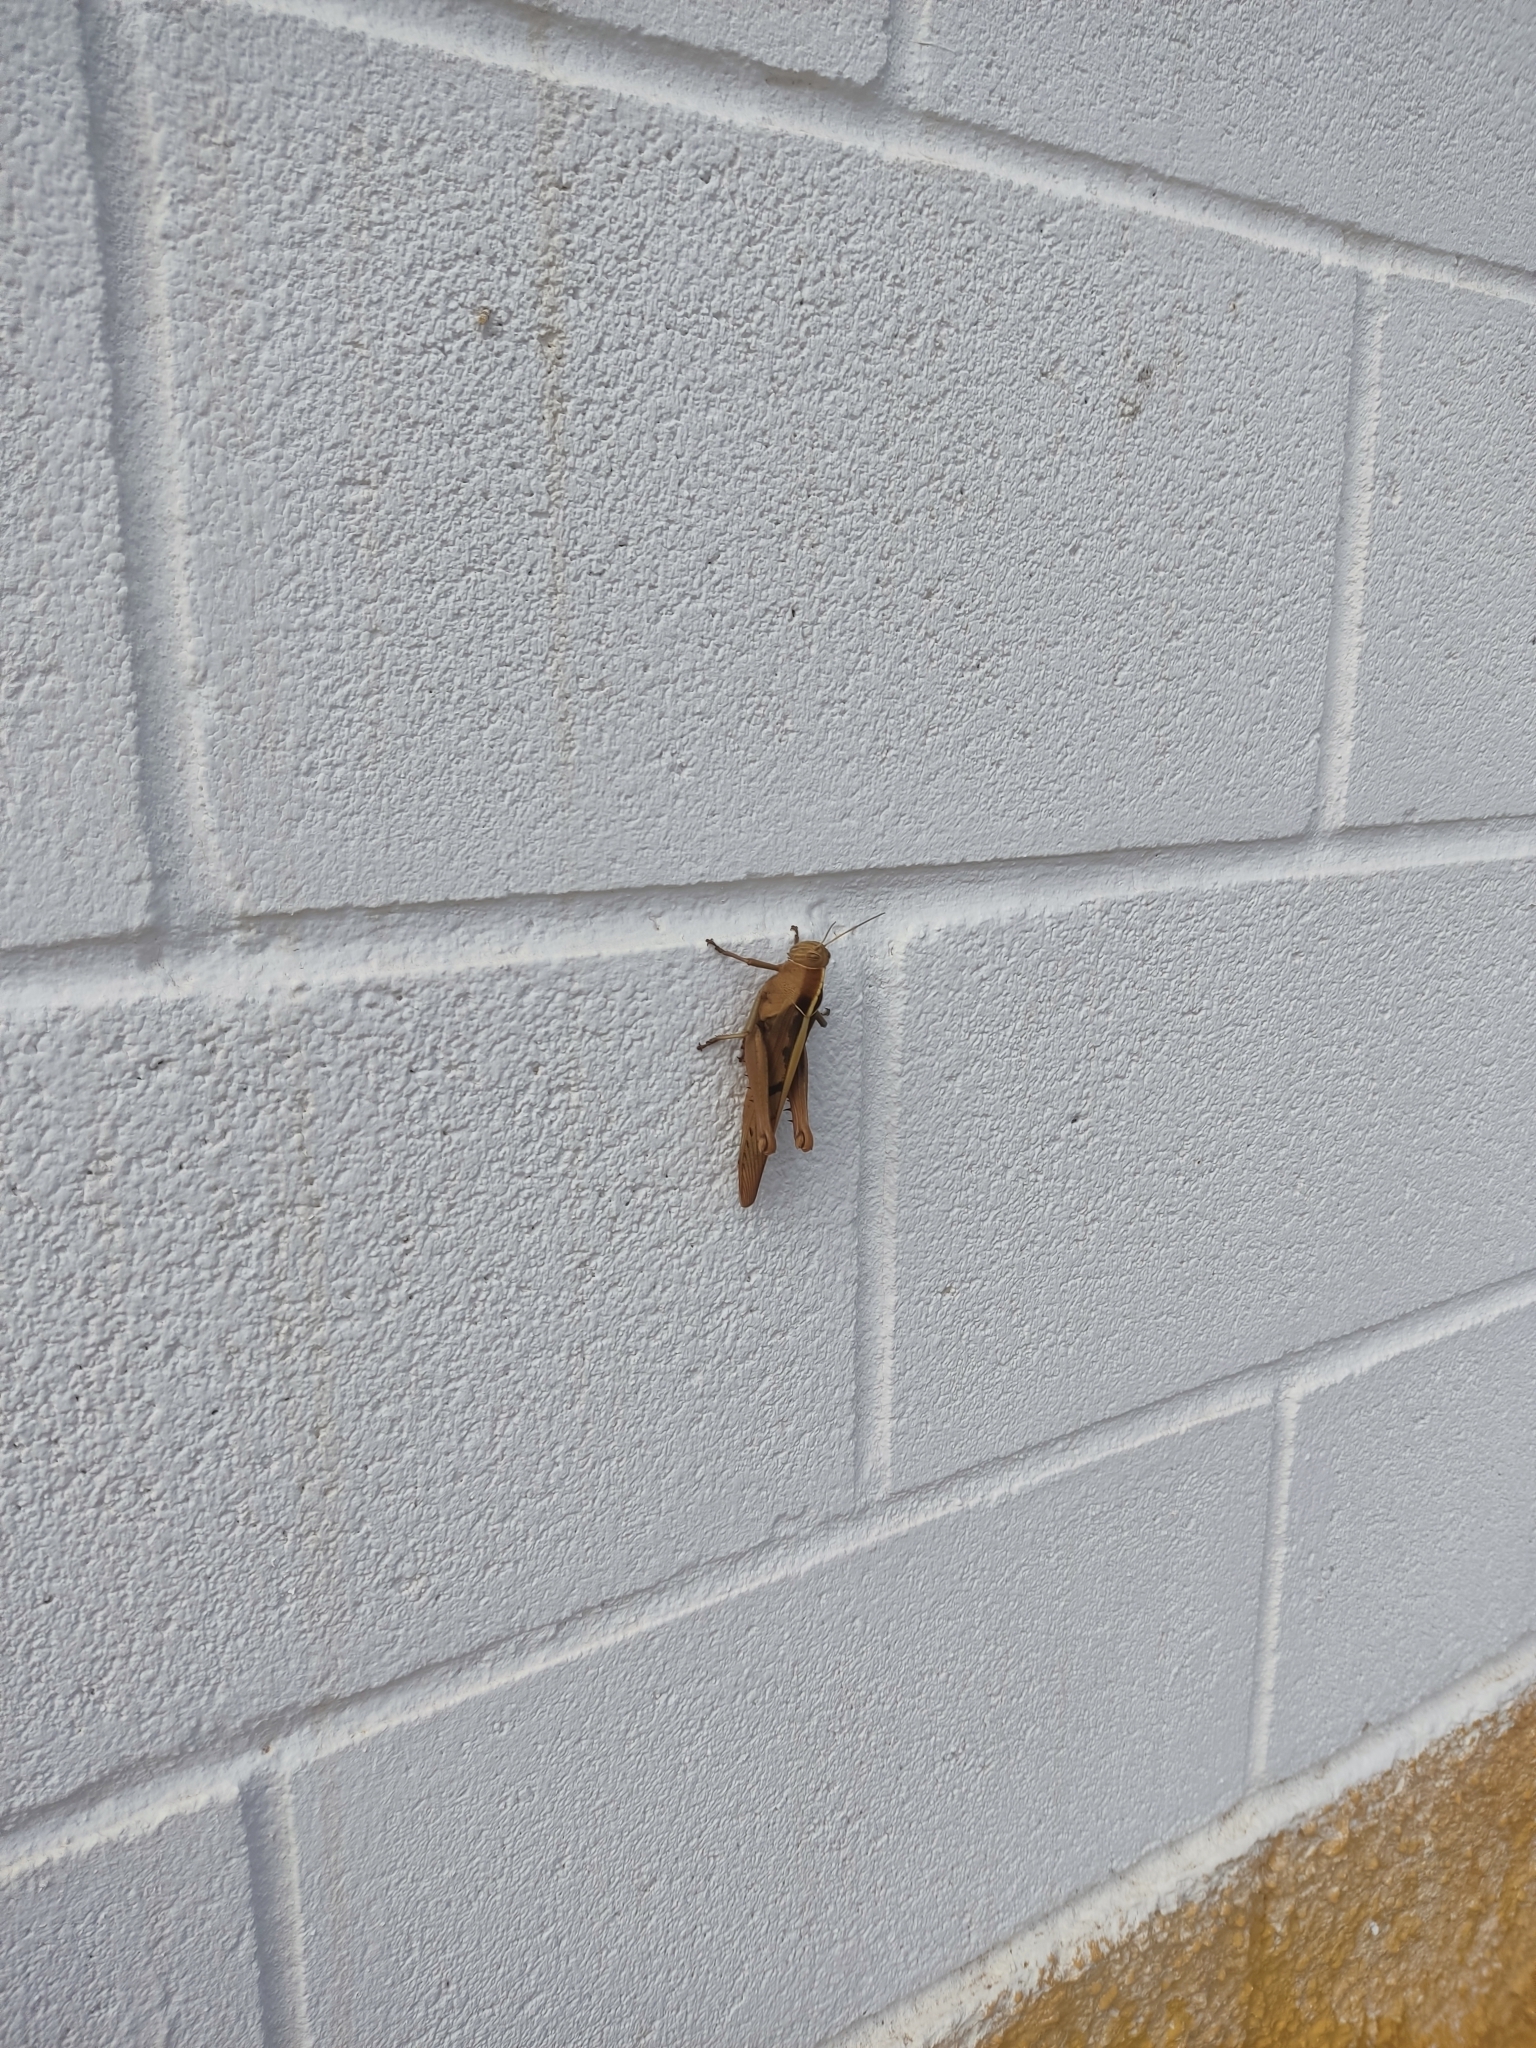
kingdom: Animalia
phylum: Arthropoda
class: Insecta
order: Orthoptera
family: Acrididae
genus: Acanthacris
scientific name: Acanthacris ruficornis
